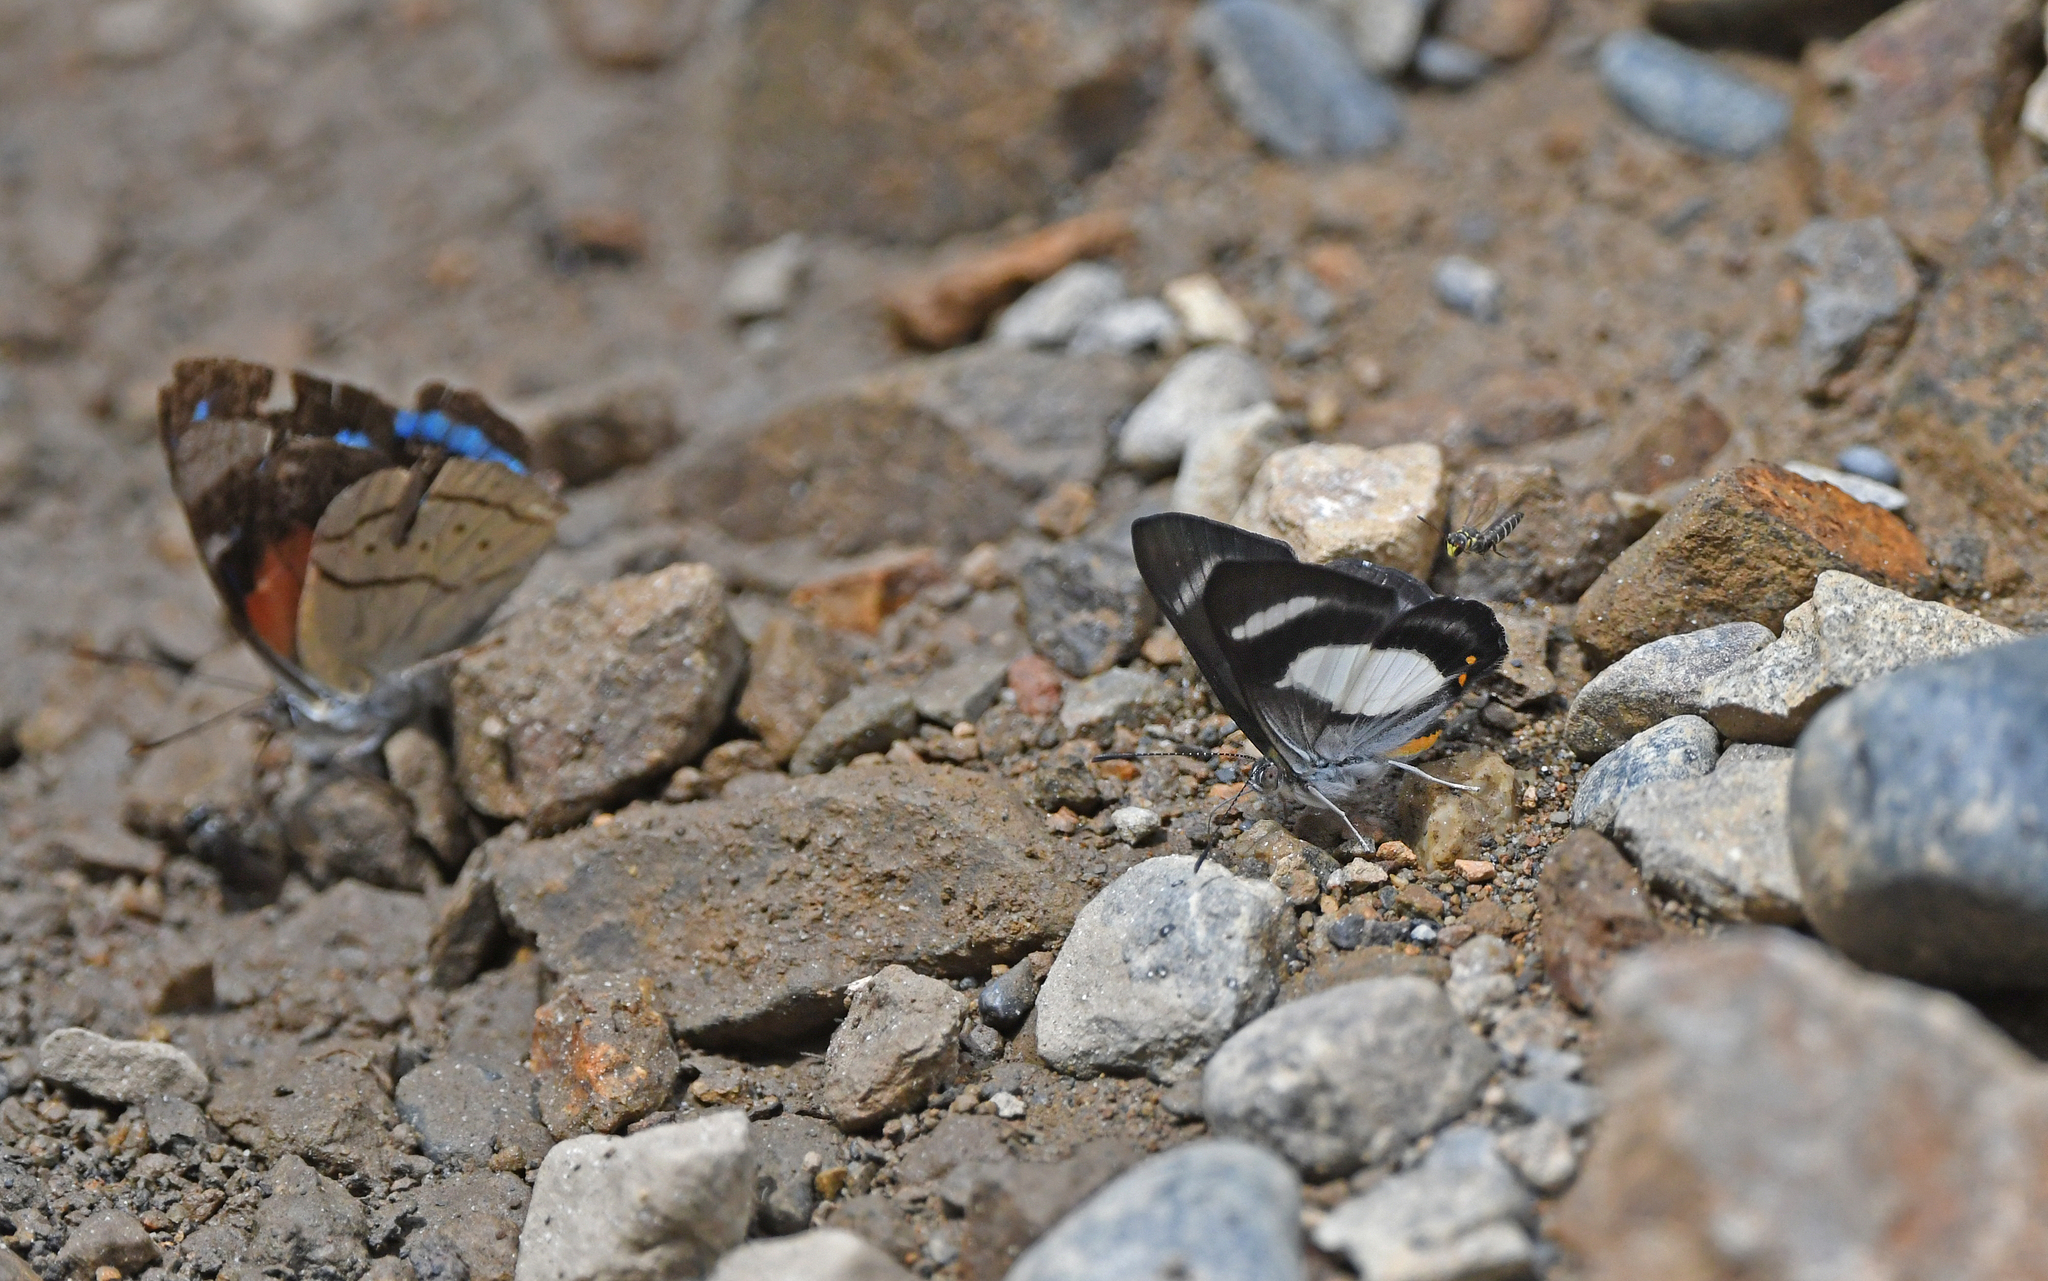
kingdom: Animalia
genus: Siseme
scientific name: Siseme alectryo
